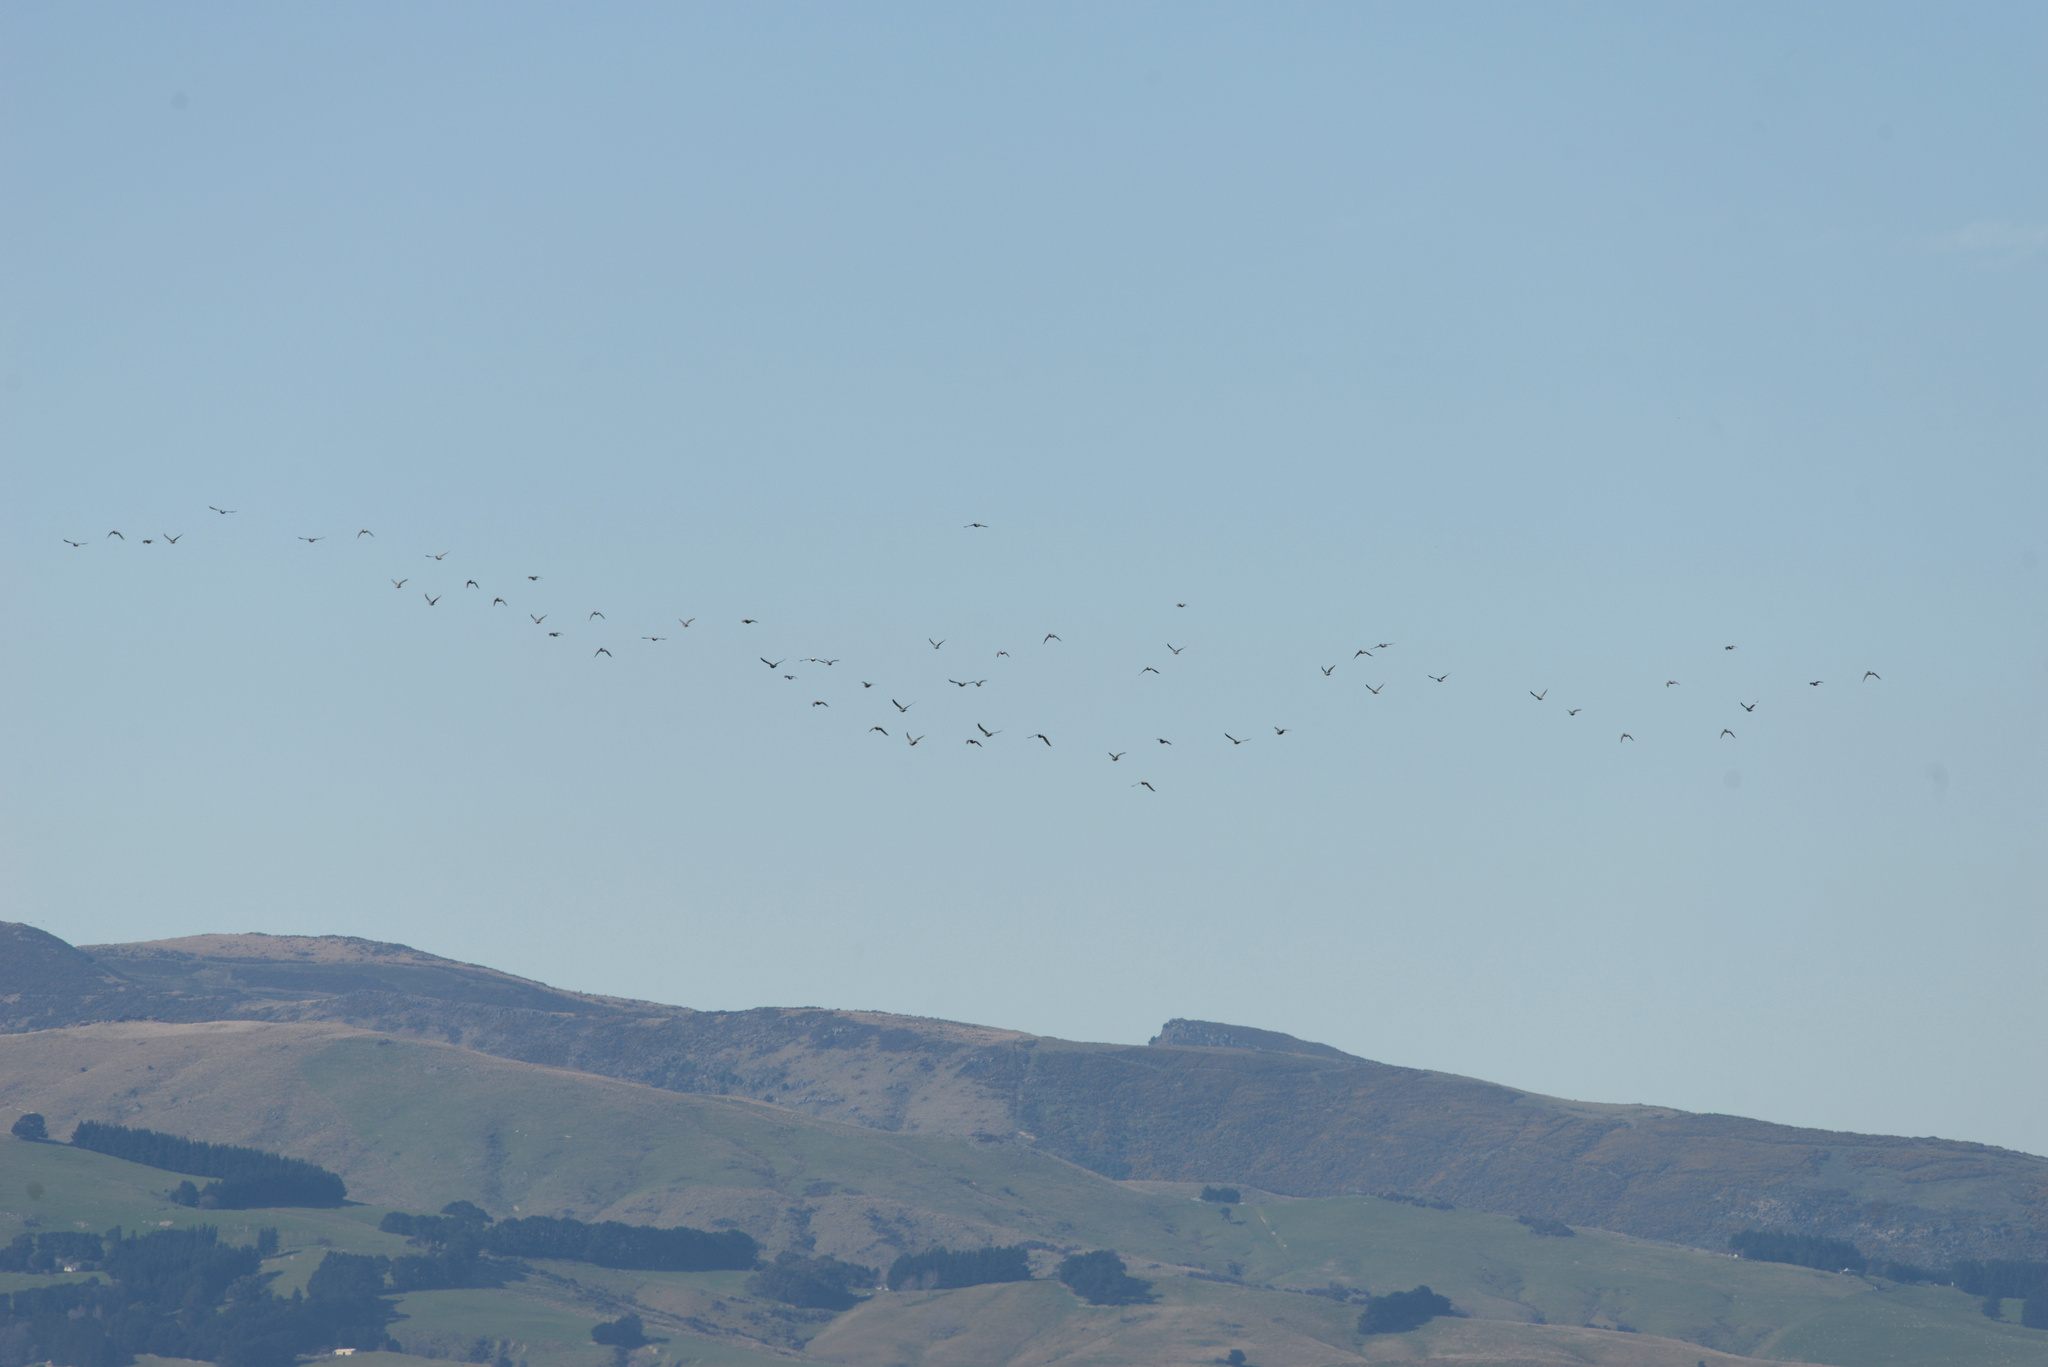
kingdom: Animalia
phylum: Chordata
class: Aves
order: Columbiformes
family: Columbidae
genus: Columba
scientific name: Columba livia
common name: Rock pigeon
